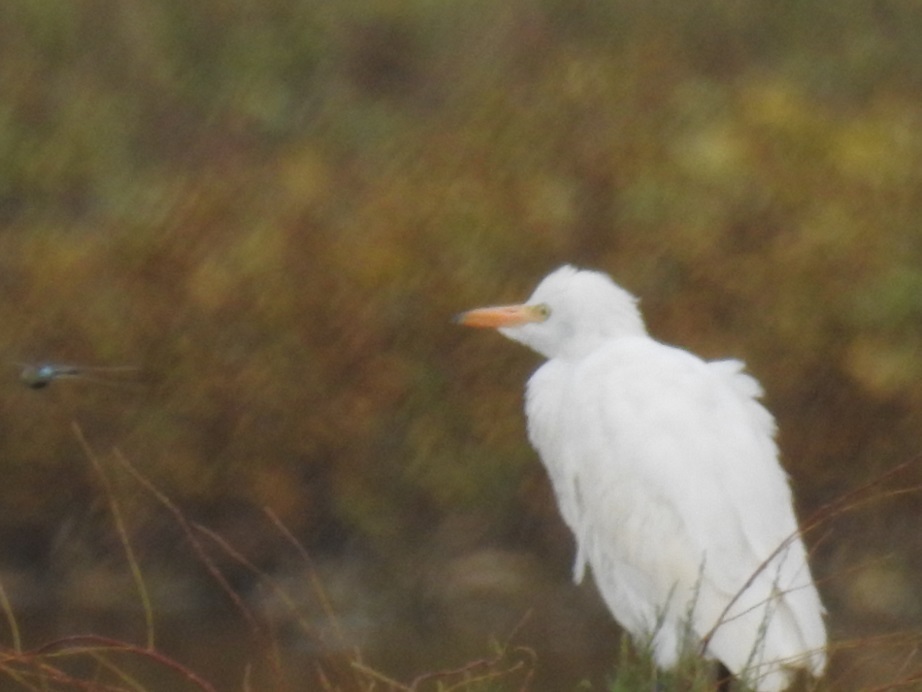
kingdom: Animalia
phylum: Chordata
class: Aves
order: Pelecaniformes
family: Ardeidae
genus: Bubulcus
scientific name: Bubulcus ibis
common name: Cattle egret
